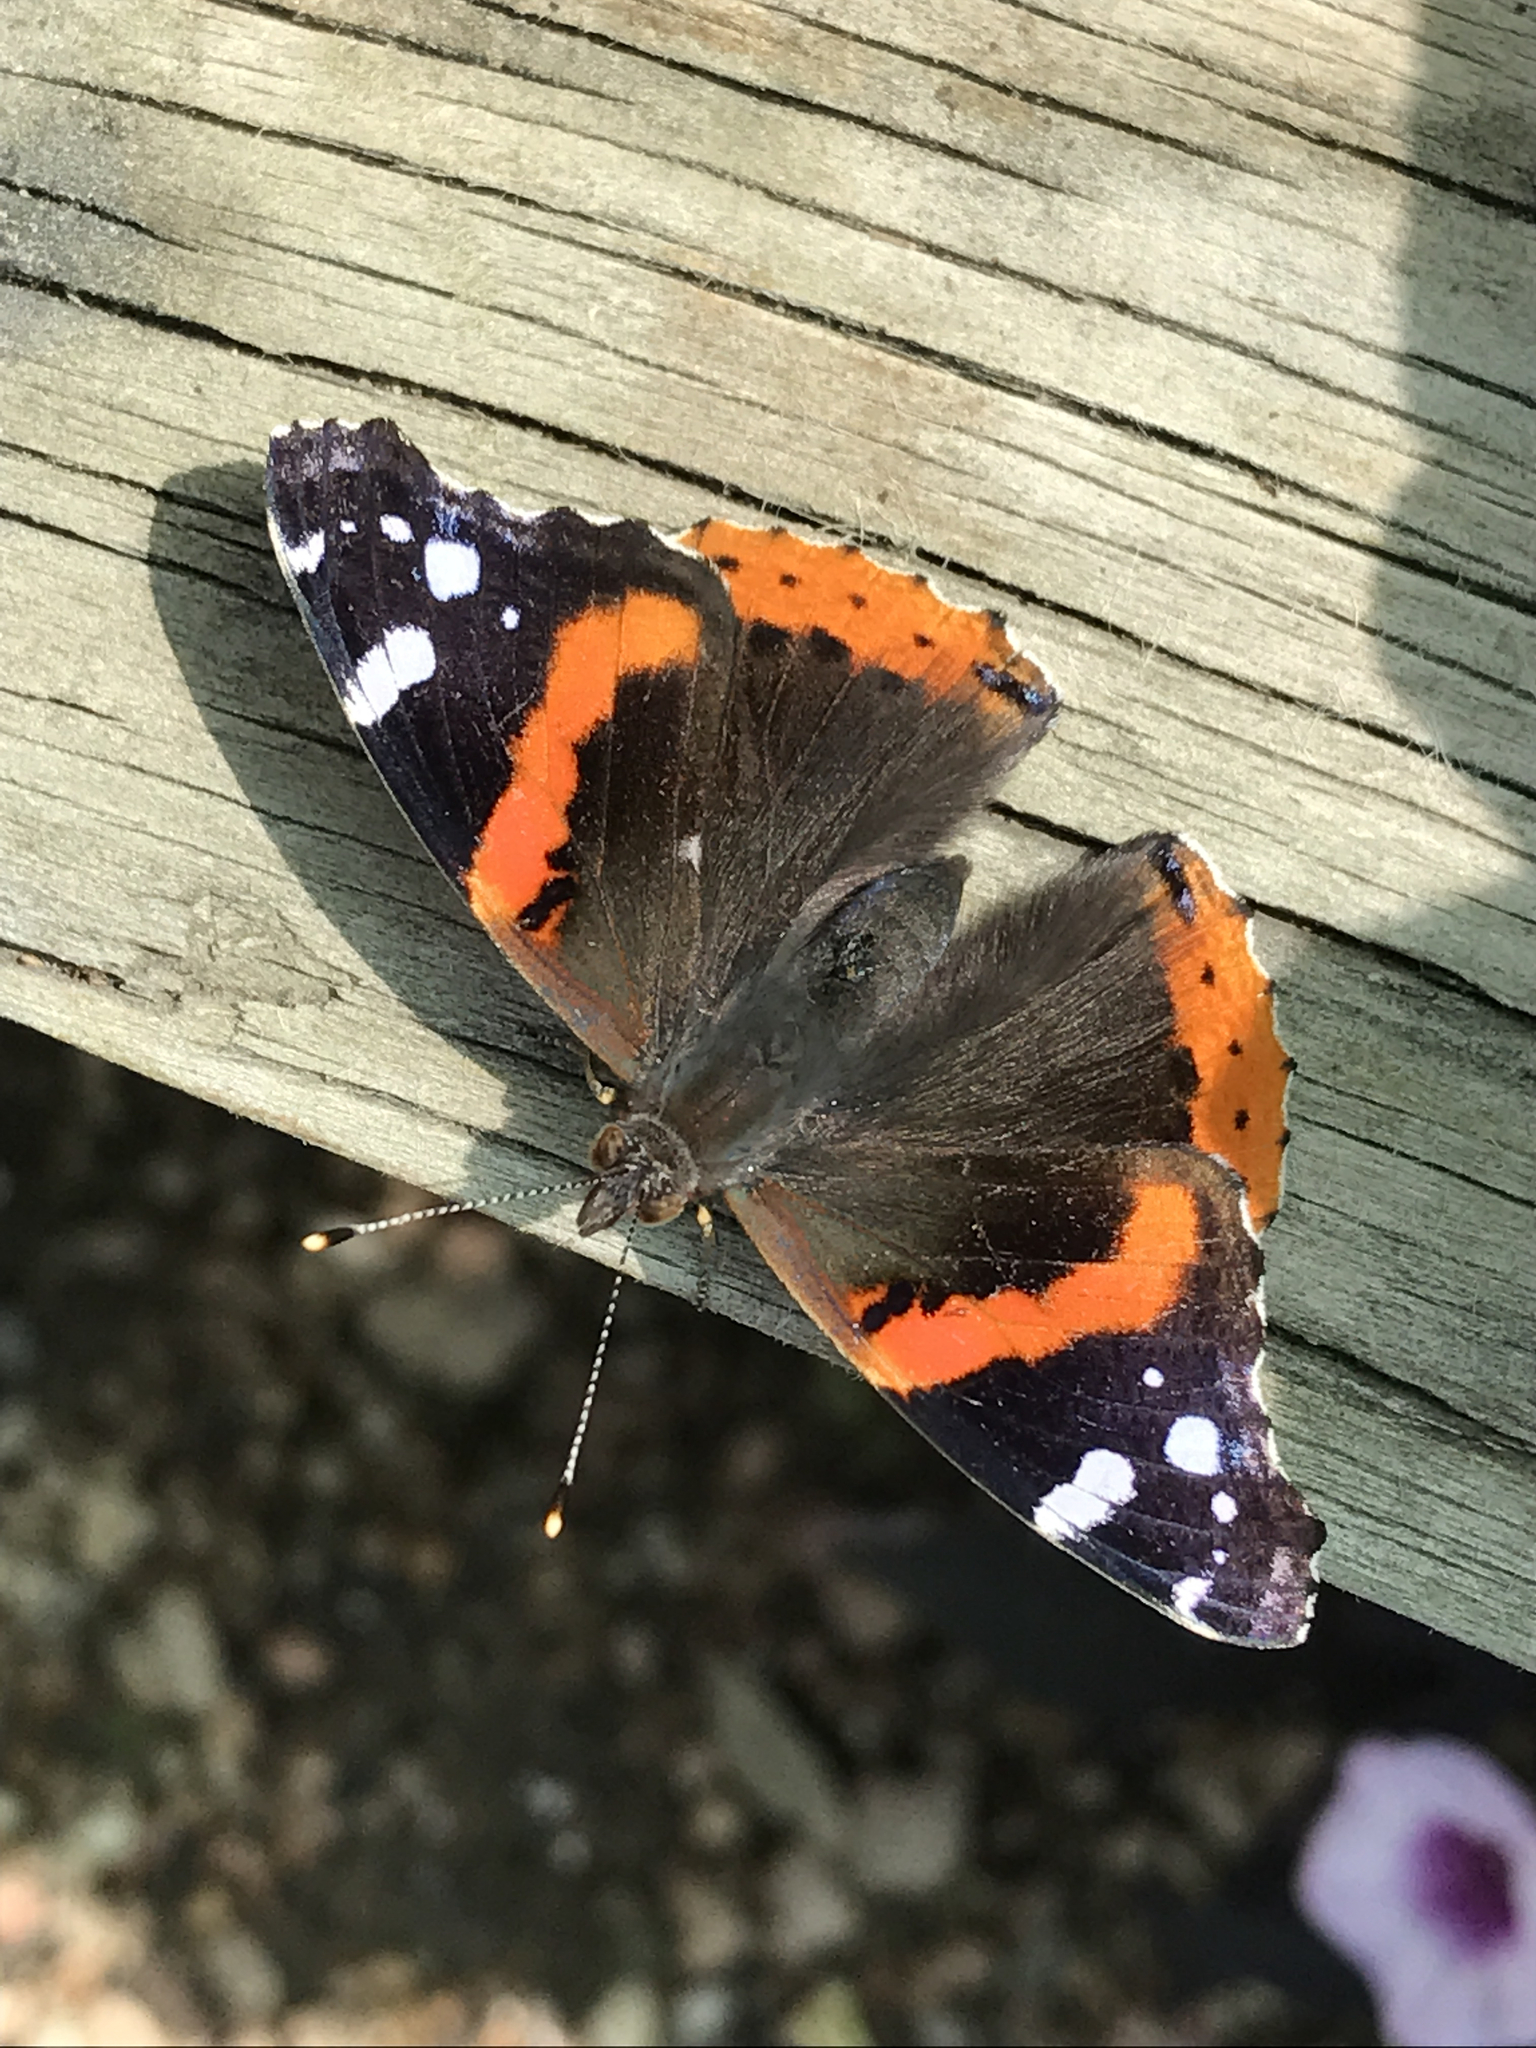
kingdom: Animalia
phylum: Arthropoda
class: Insecta
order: Lepidoptera
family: Nymphalidae
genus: Vanessa
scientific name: Vanessa atalanta
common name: Red admiral
